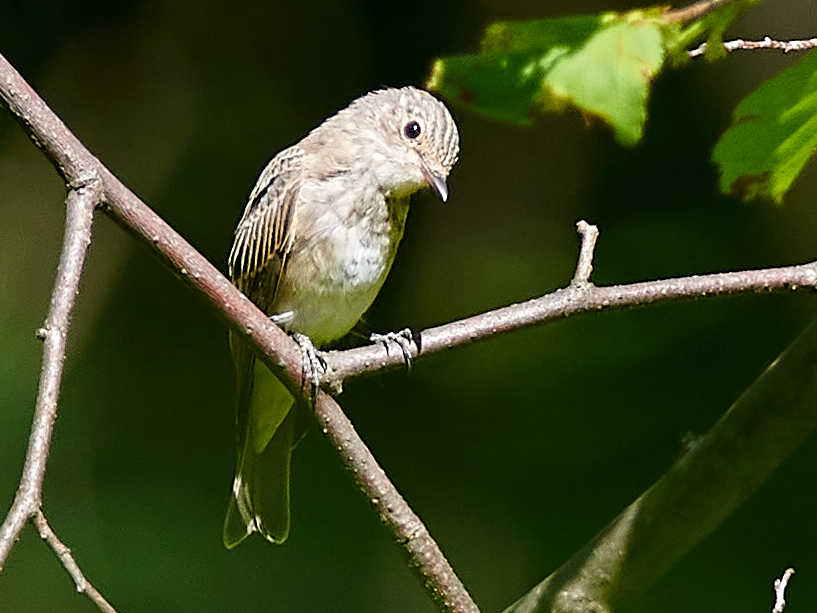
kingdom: Animalia
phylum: Chordata
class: Aves
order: Passeriformes
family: Muscicapidae
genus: Muscicapa
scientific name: Muscicapa striata
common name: Spotted flycatcher
